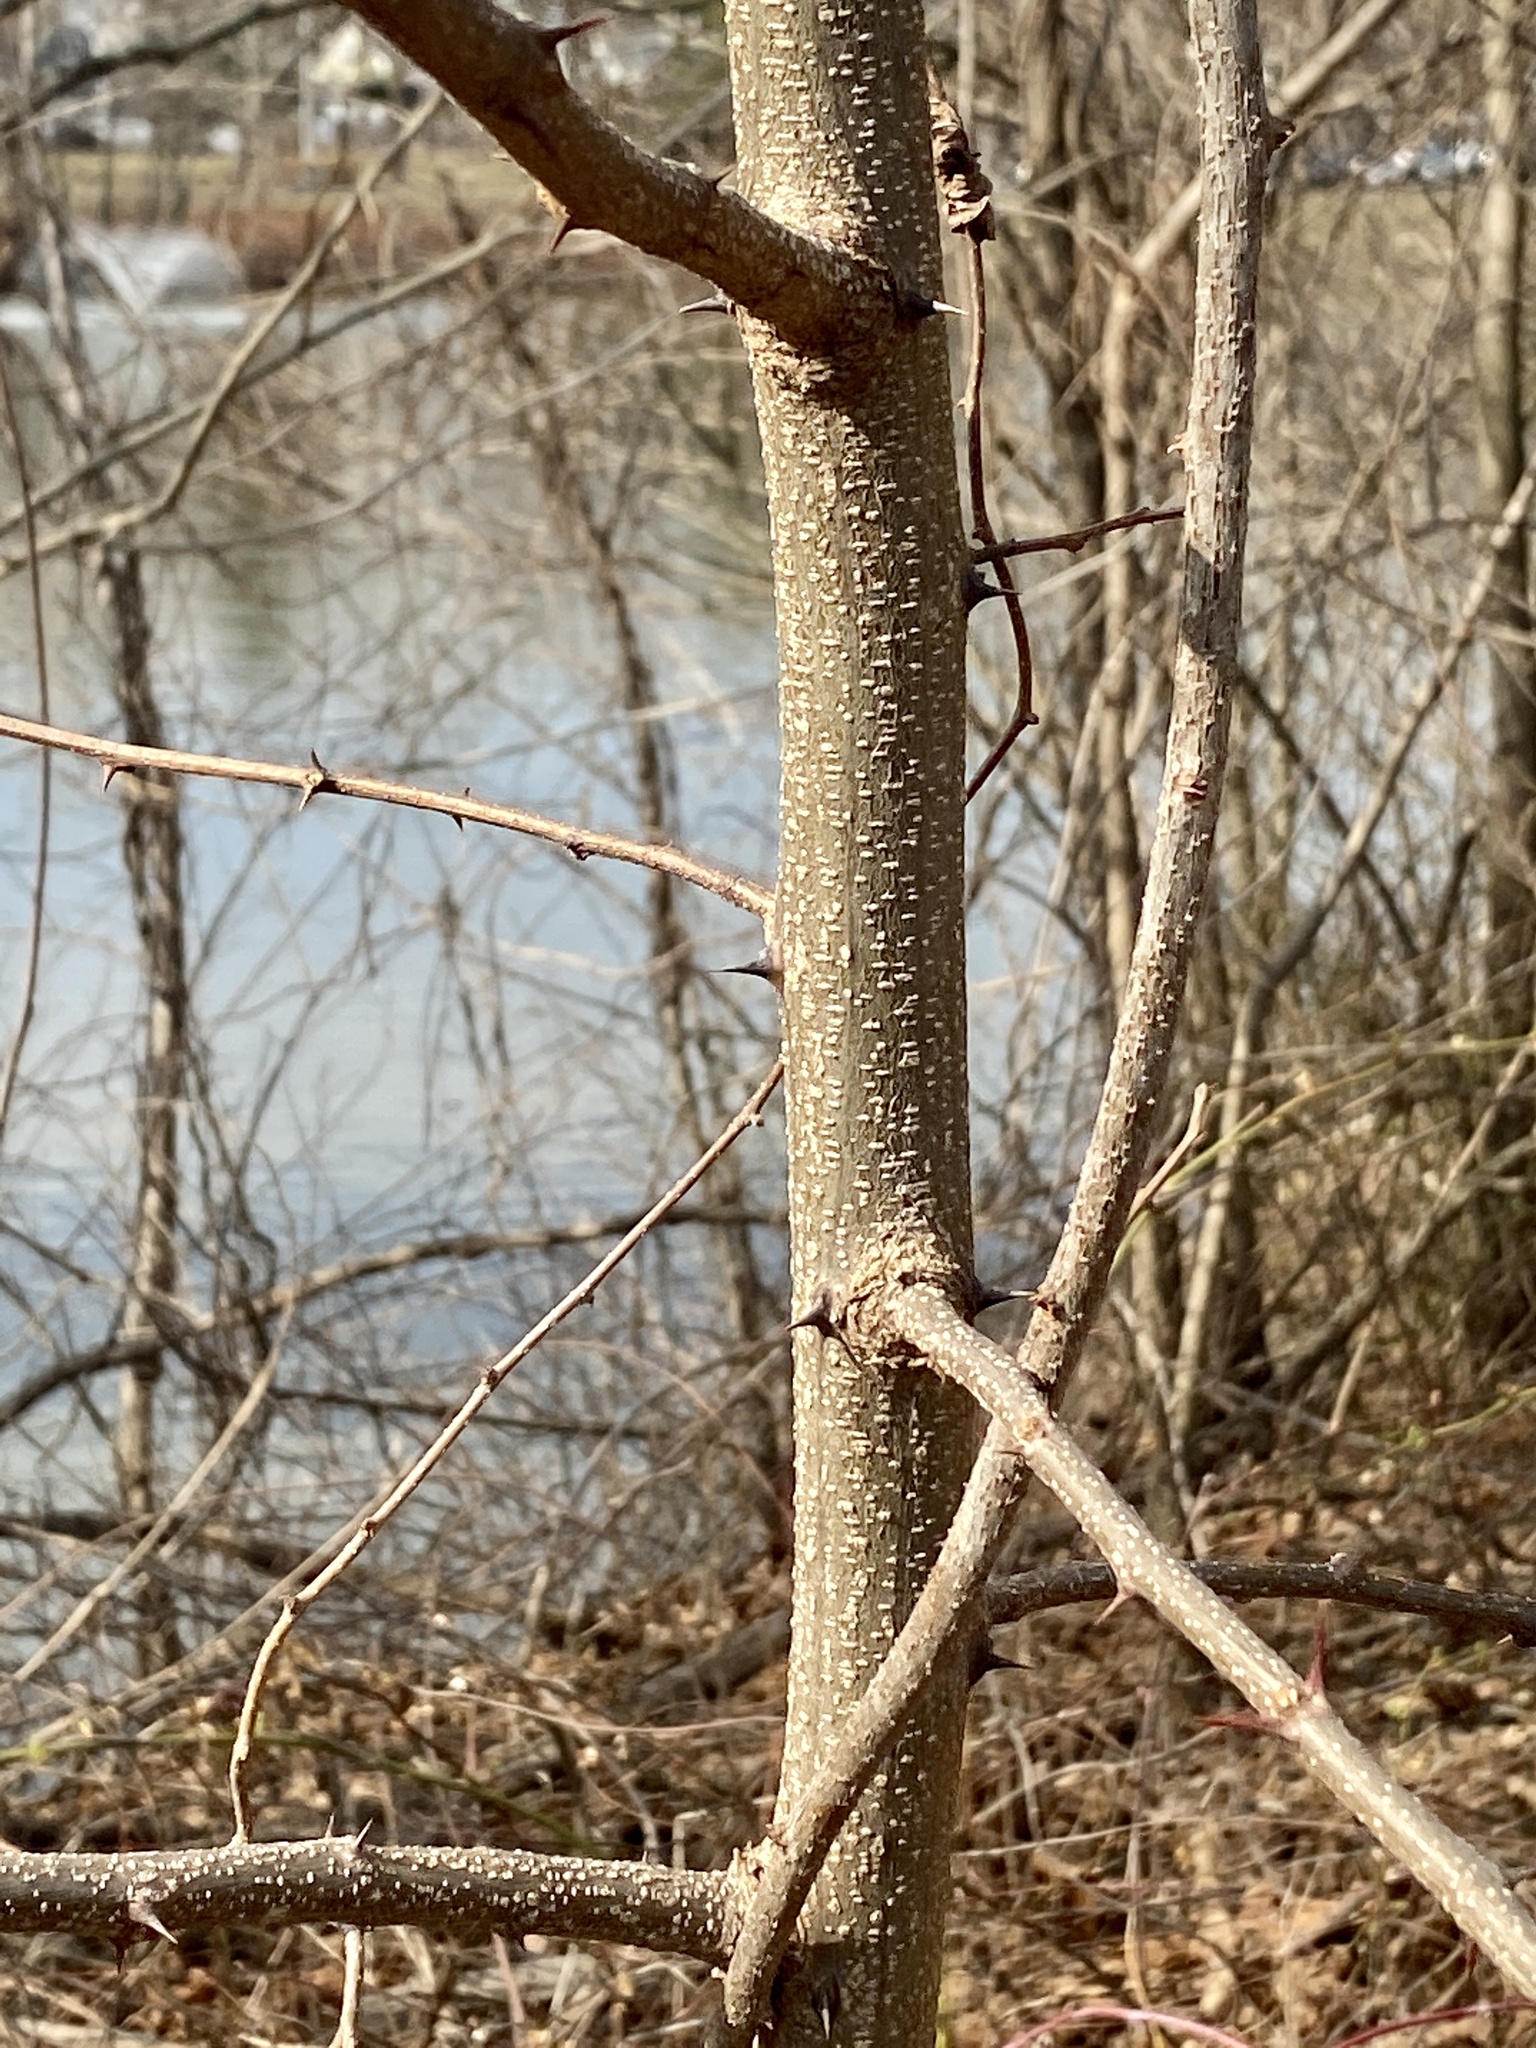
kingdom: Plantae
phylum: Tracheophyta
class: Magnoliopsida
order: Fabales
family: Fabaceae
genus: Robinia
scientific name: Robinia pseudoacacia
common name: Black locust
